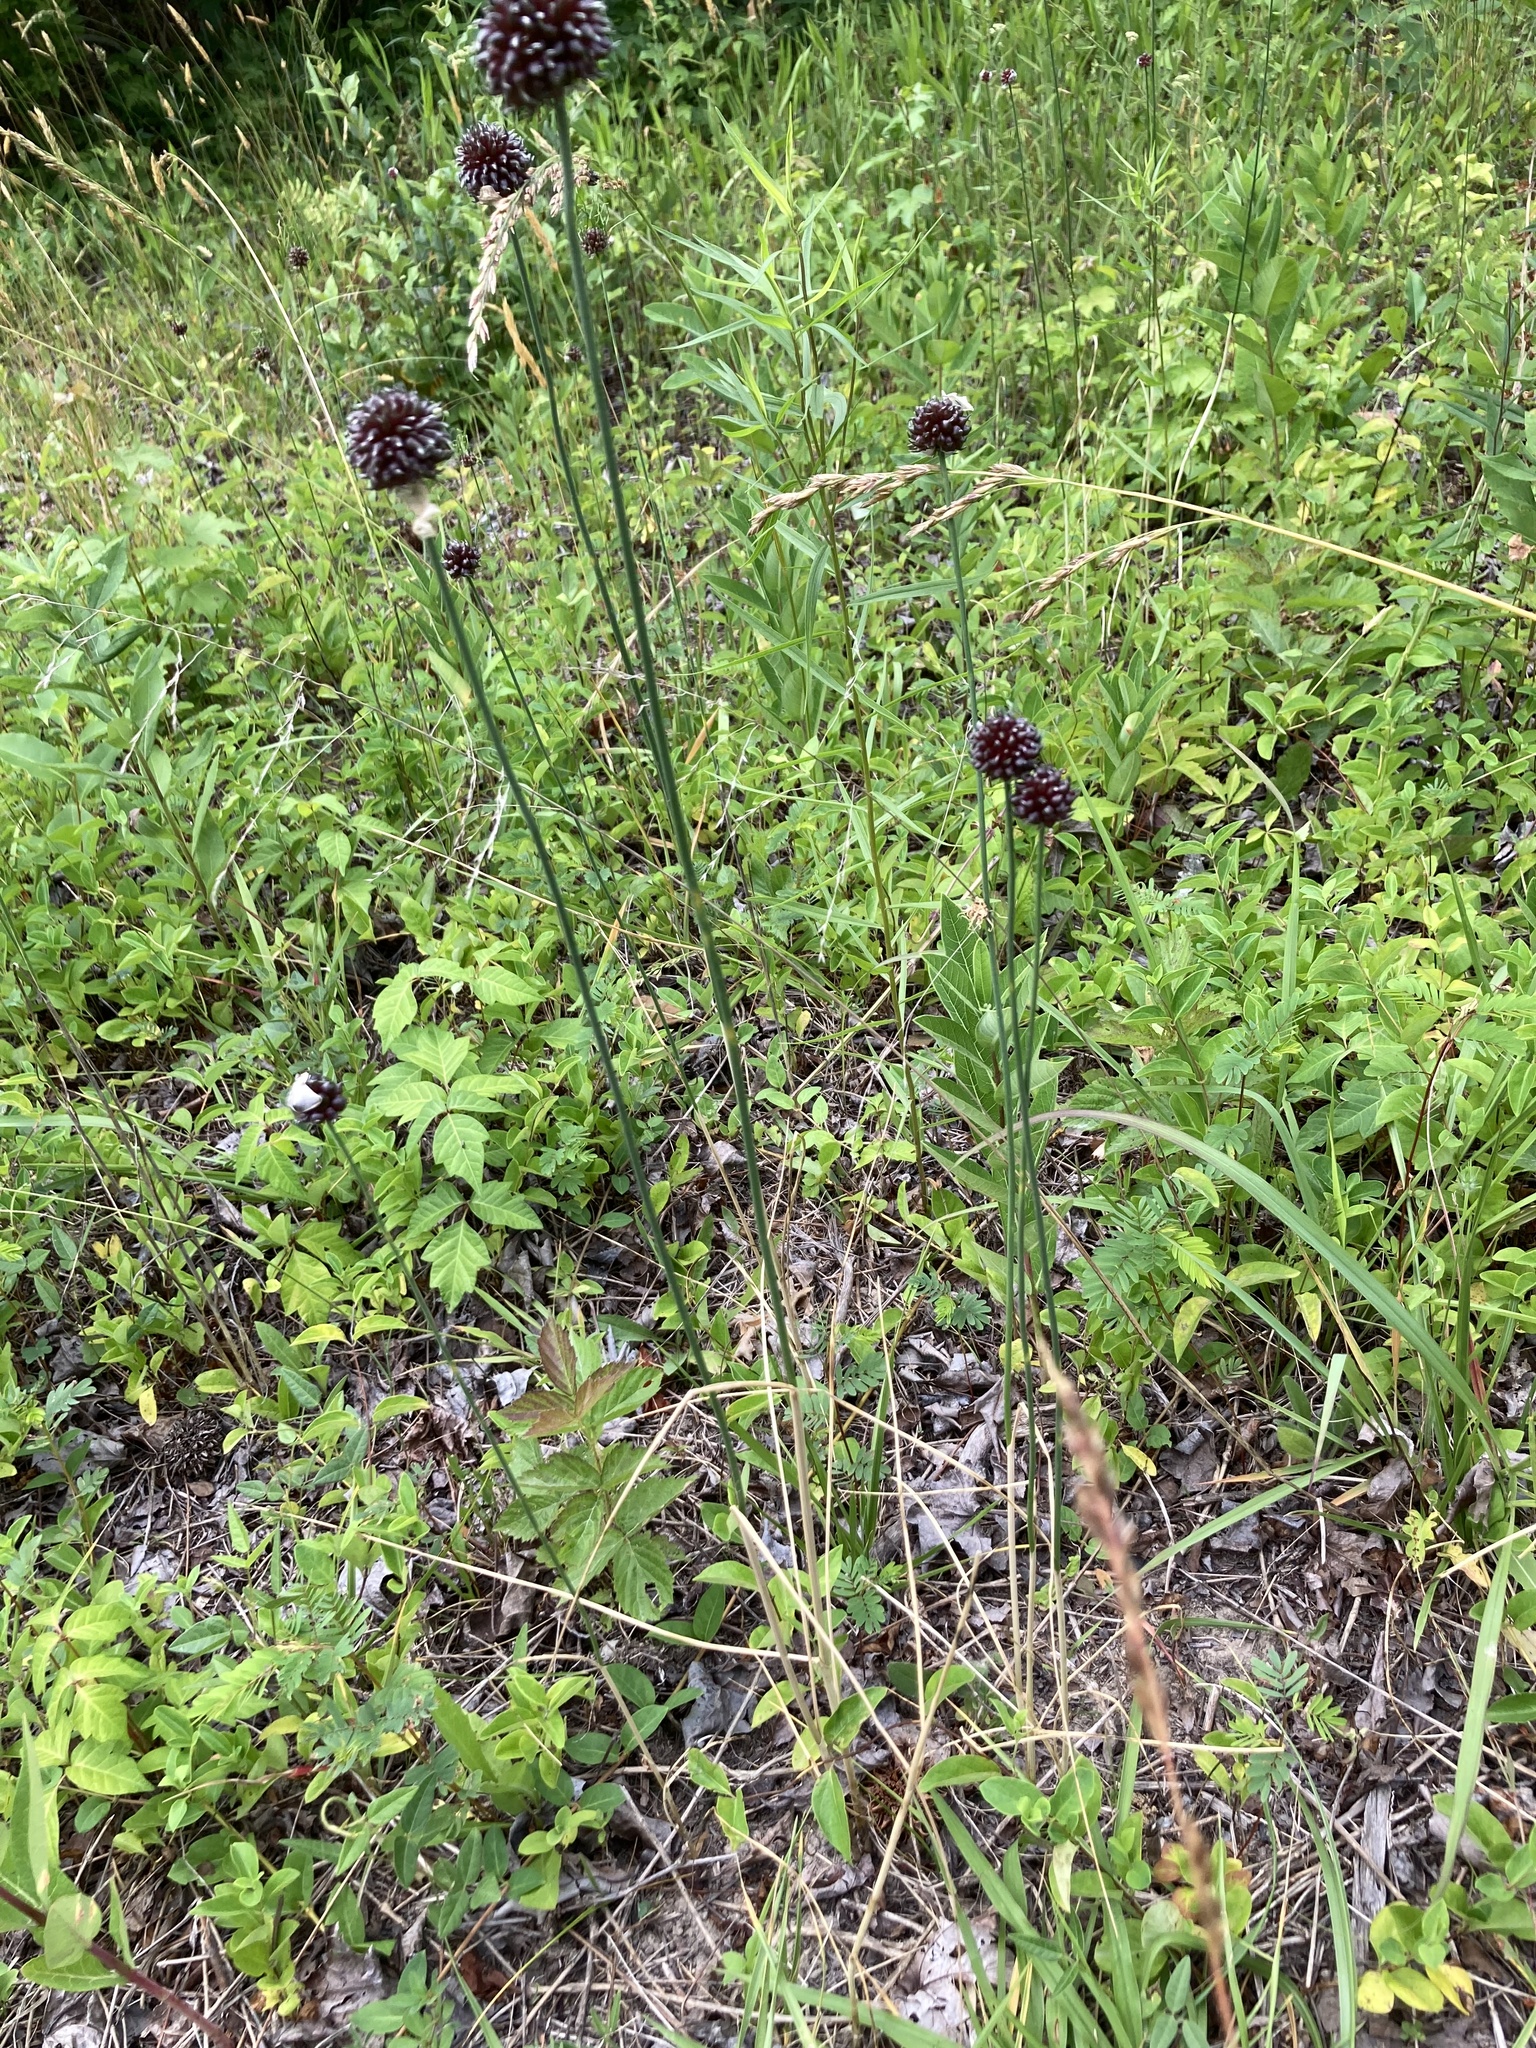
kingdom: Plantae
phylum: Tracheophyta
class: Liliopsida
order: Asparagales
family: Amaryllidaceae
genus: Allium
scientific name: Allium vineale
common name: Crow garlic
